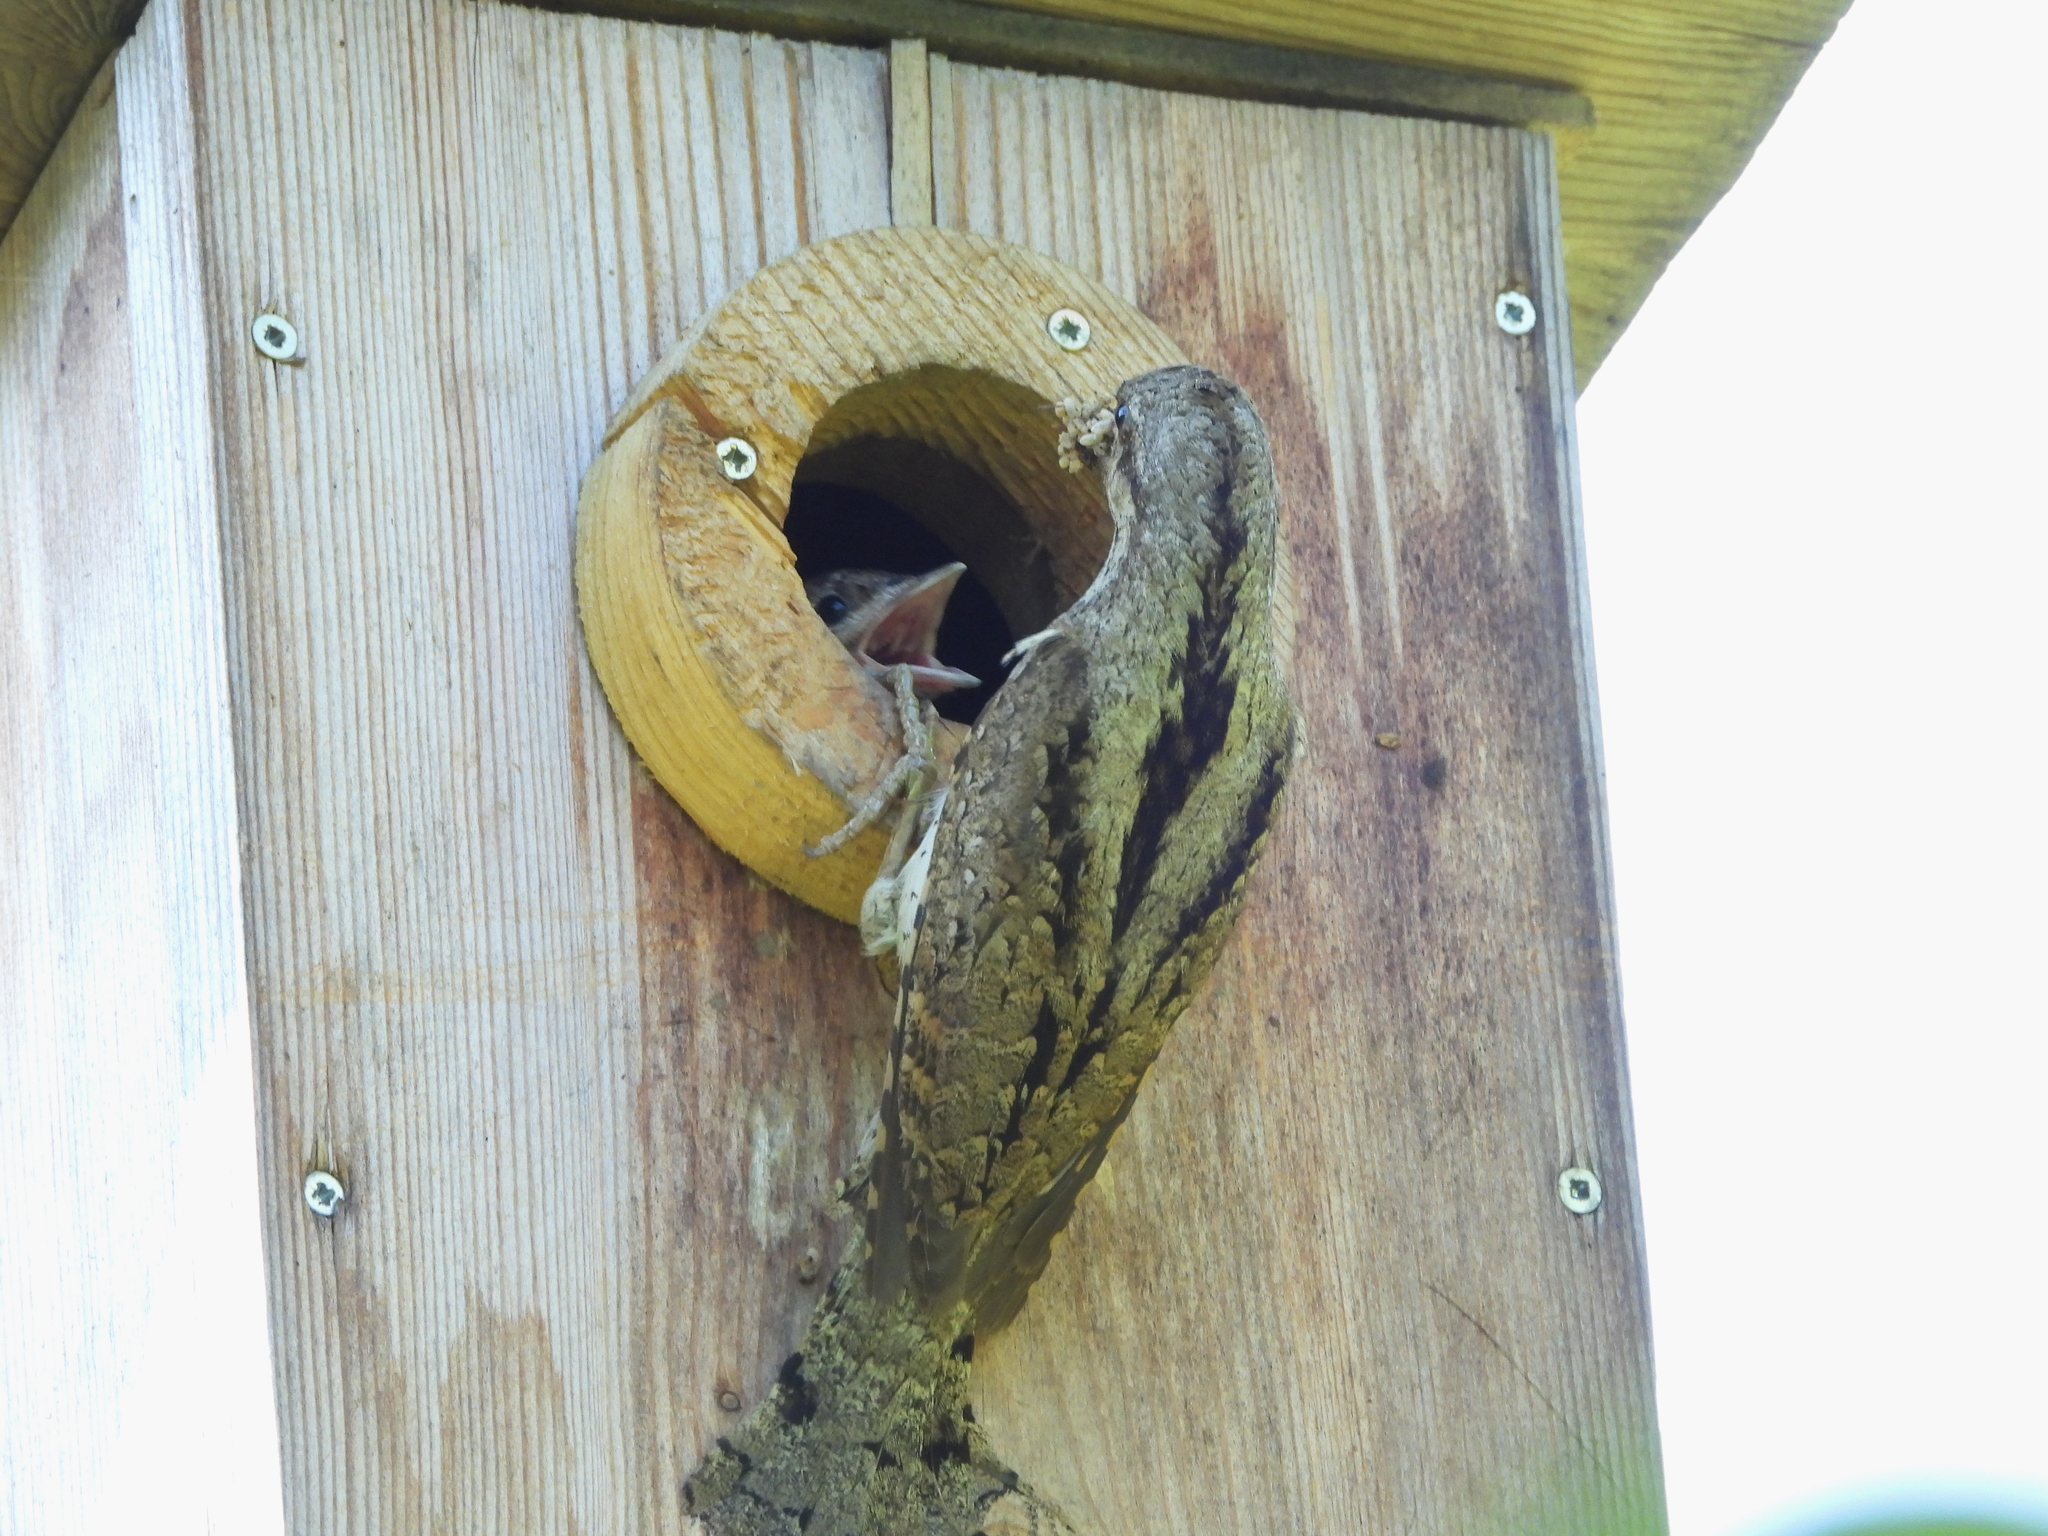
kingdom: Animalia
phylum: Chordata
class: Aves
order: Piciformes
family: Picidae
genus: Jynx
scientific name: Jynx torquilla
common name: Eurasian wryneck
